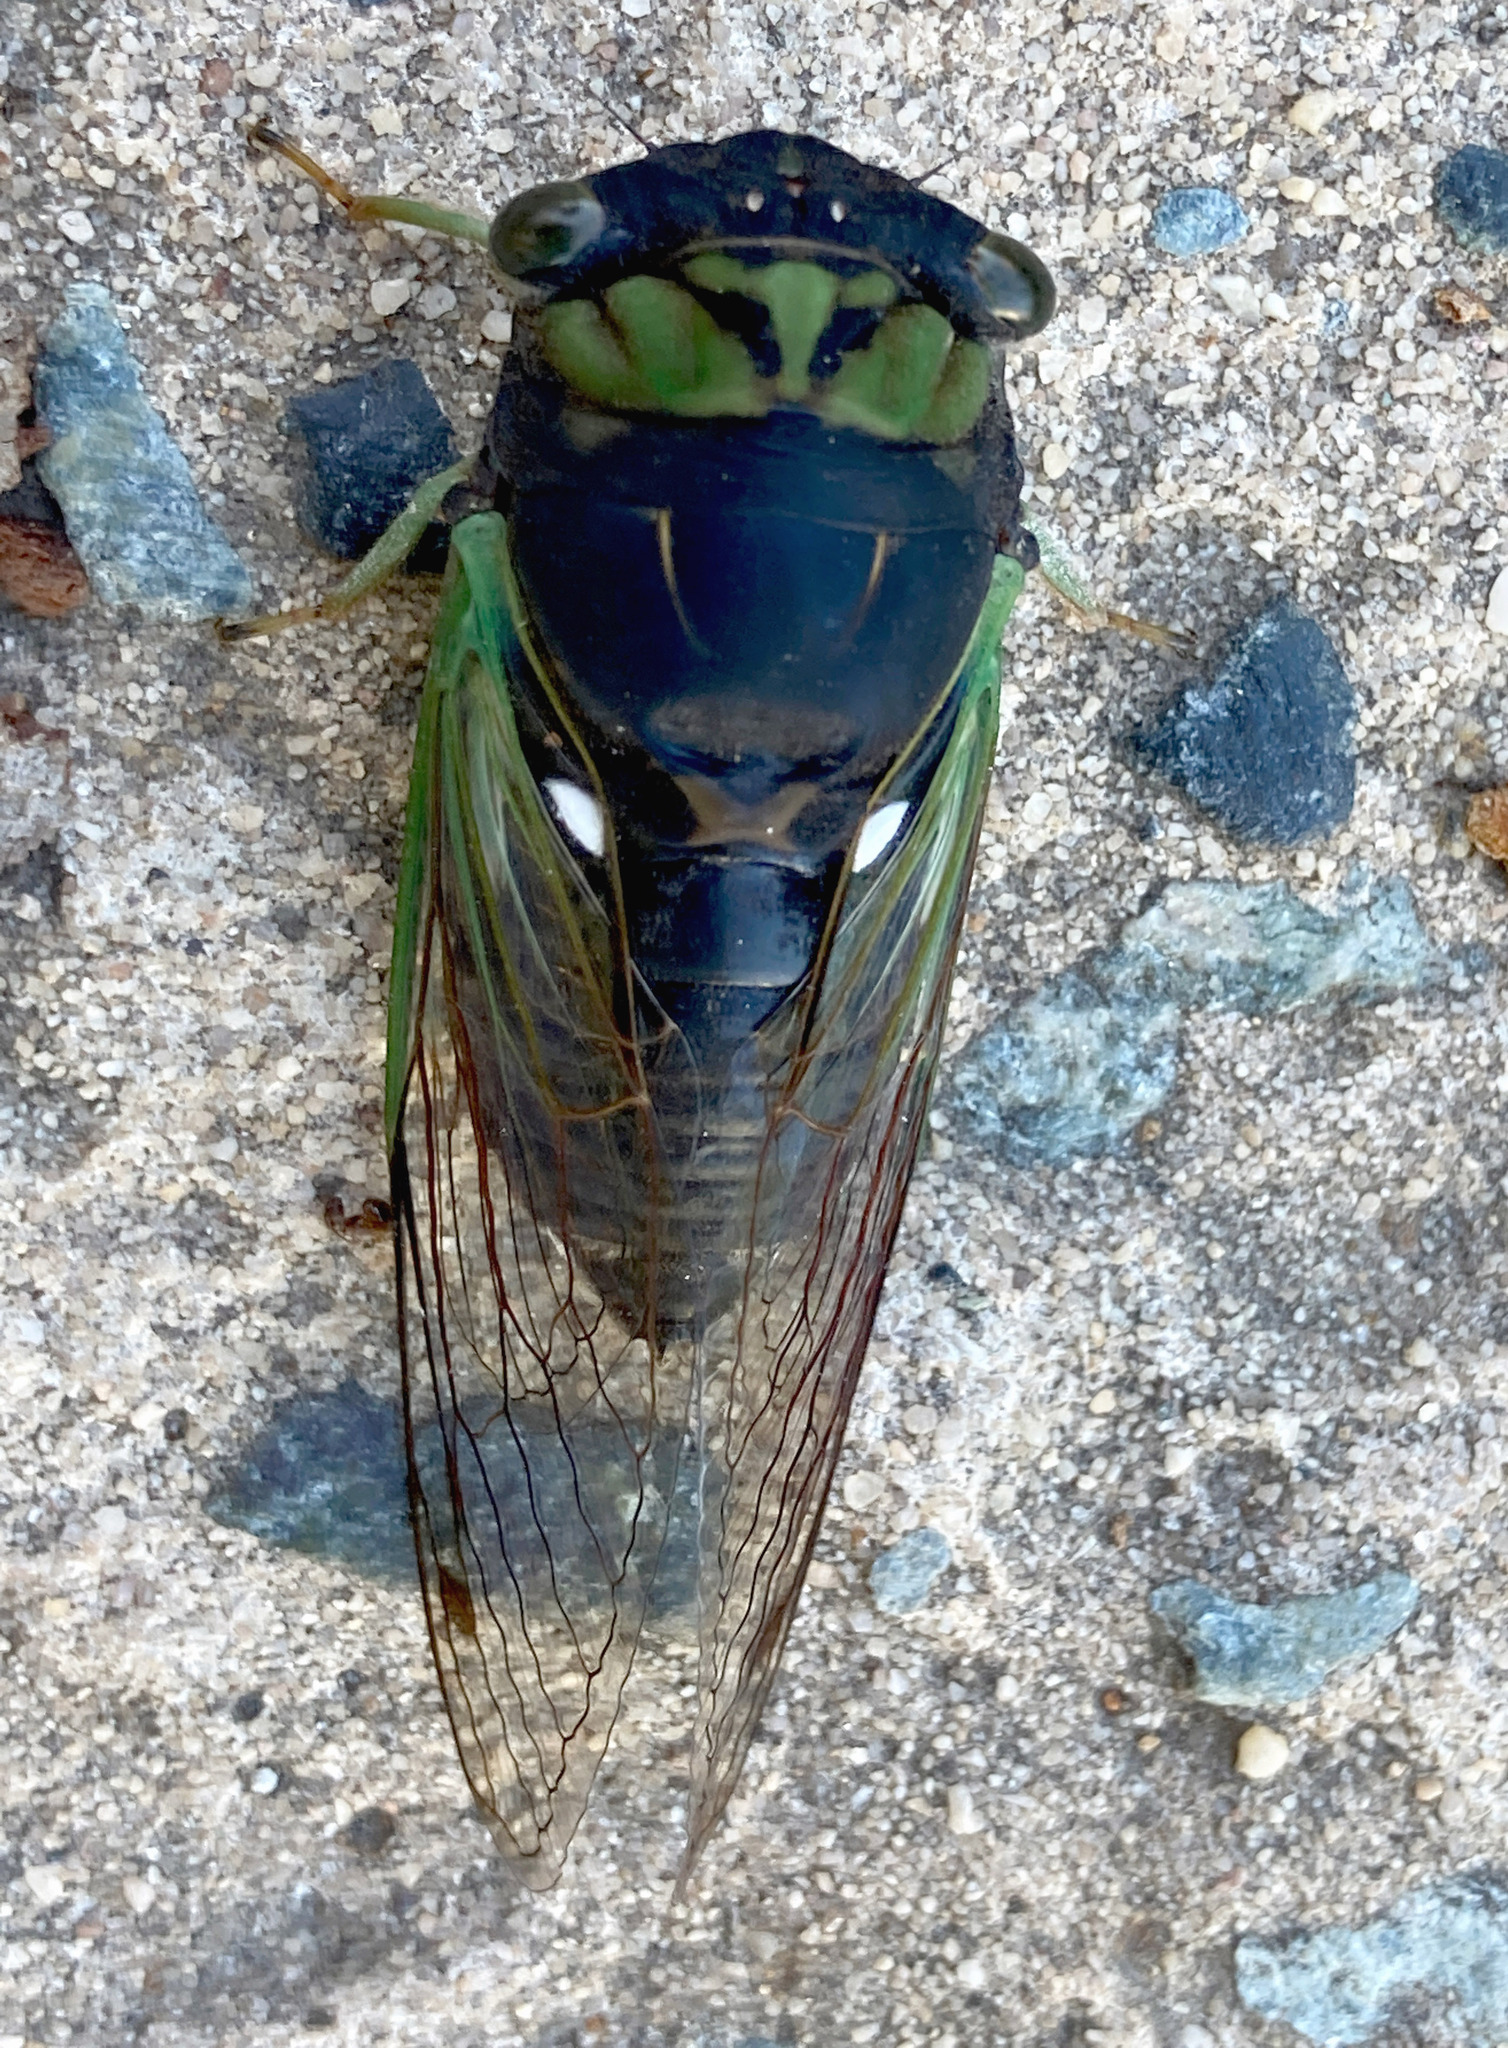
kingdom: Animalia
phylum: Arthropoda
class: Insecta
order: Hemiptera
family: Cicadidae
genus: Neotibicen
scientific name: Neotibicen tibicen
